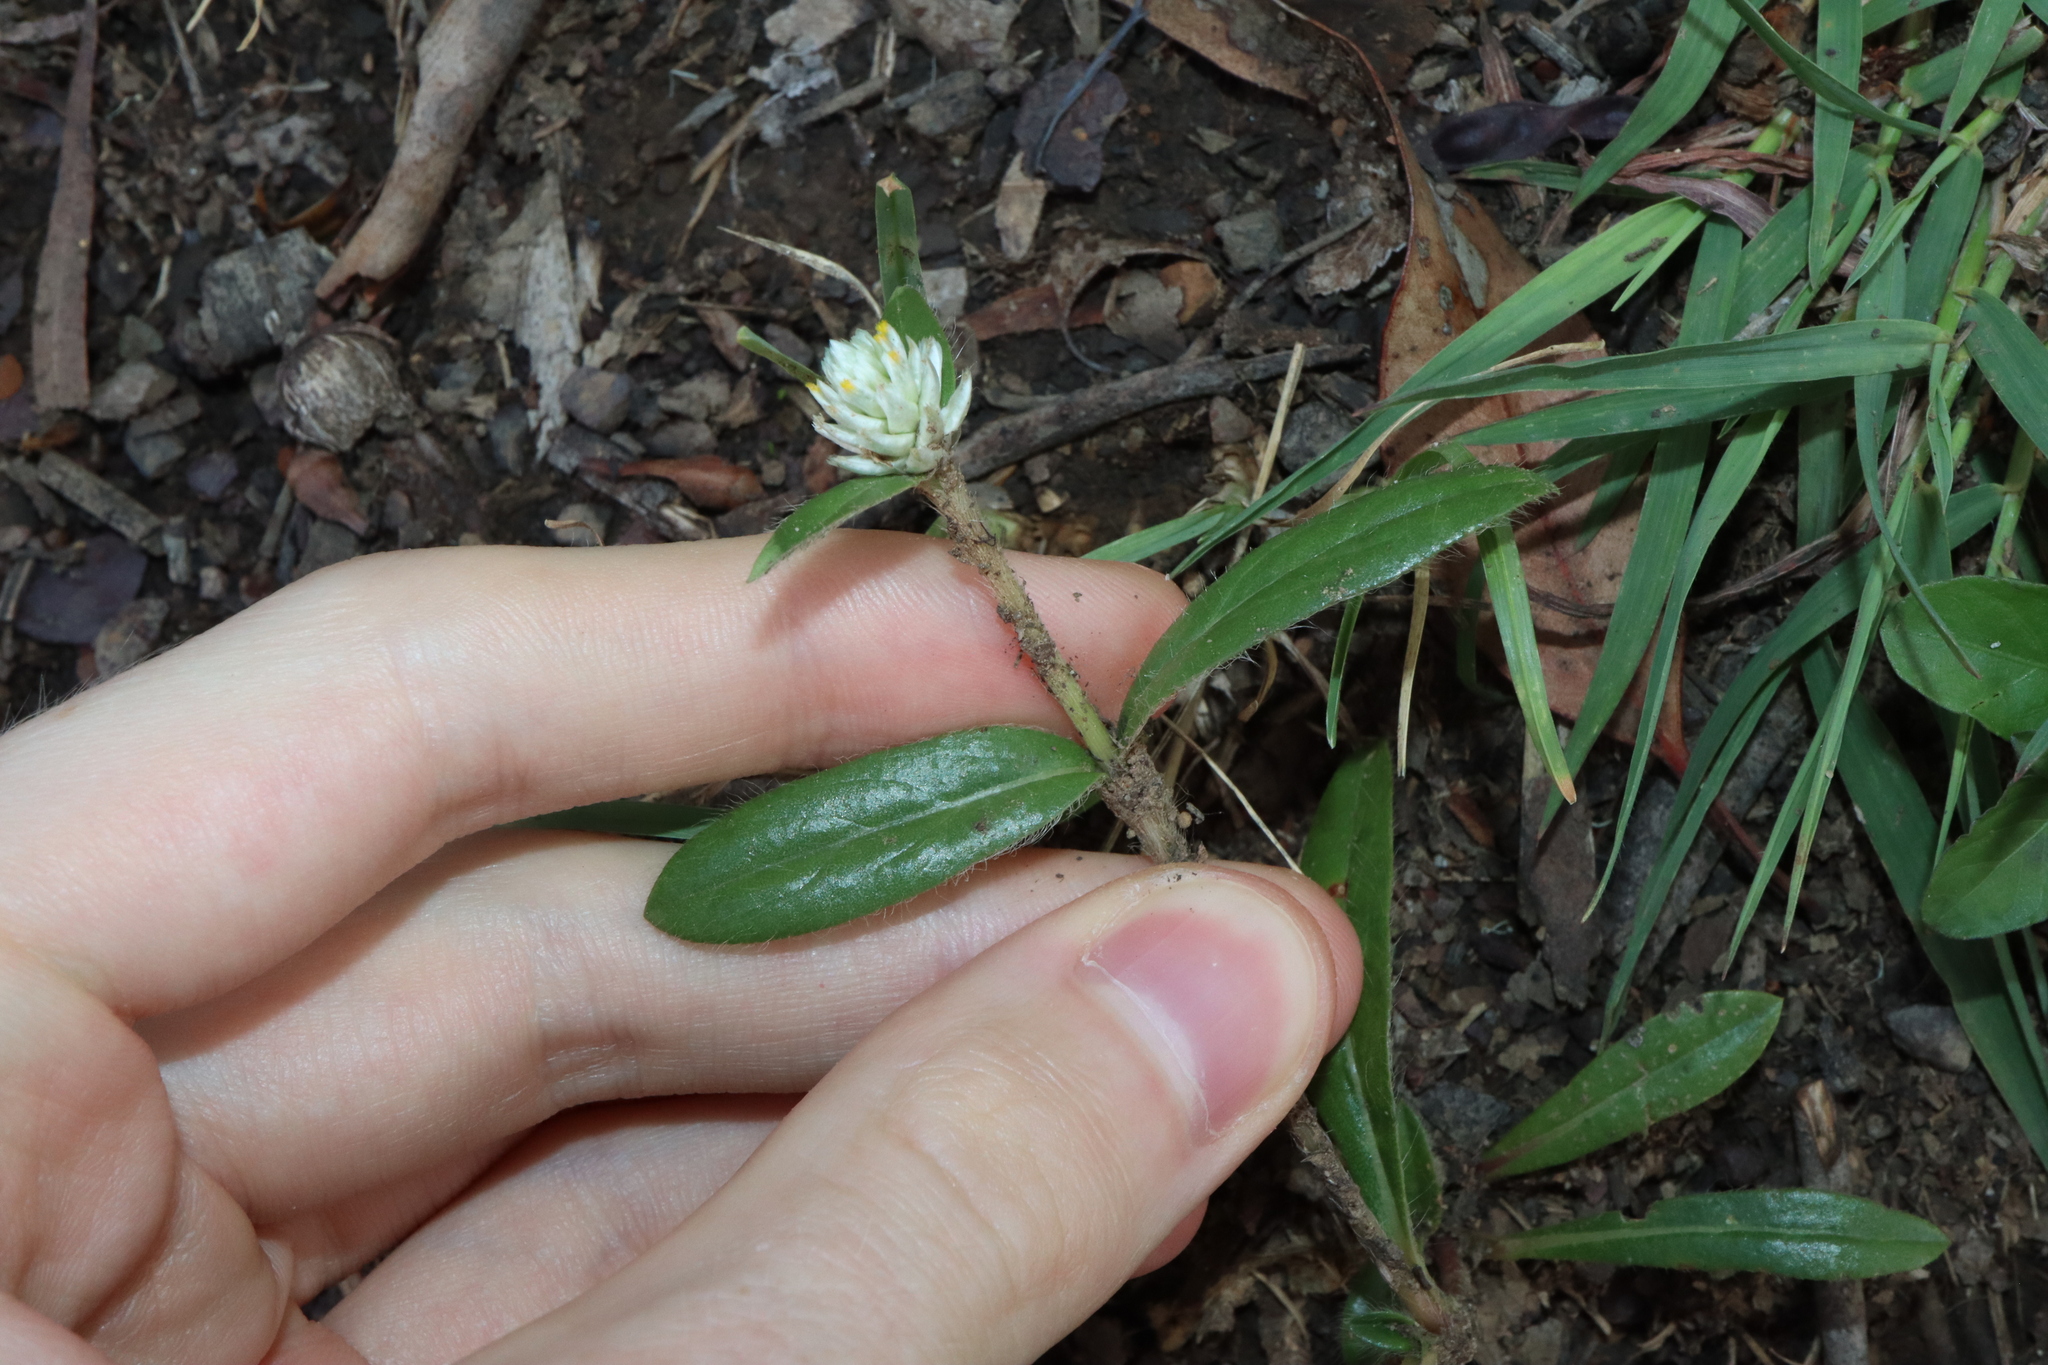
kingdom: Plantae
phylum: Tracheophyta
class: Magnoliopsida
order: Caryophyllales
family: Amaranthaceae
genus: Gomphrena
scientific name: Gomphrena celosioides
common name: Gomphrena-weed
